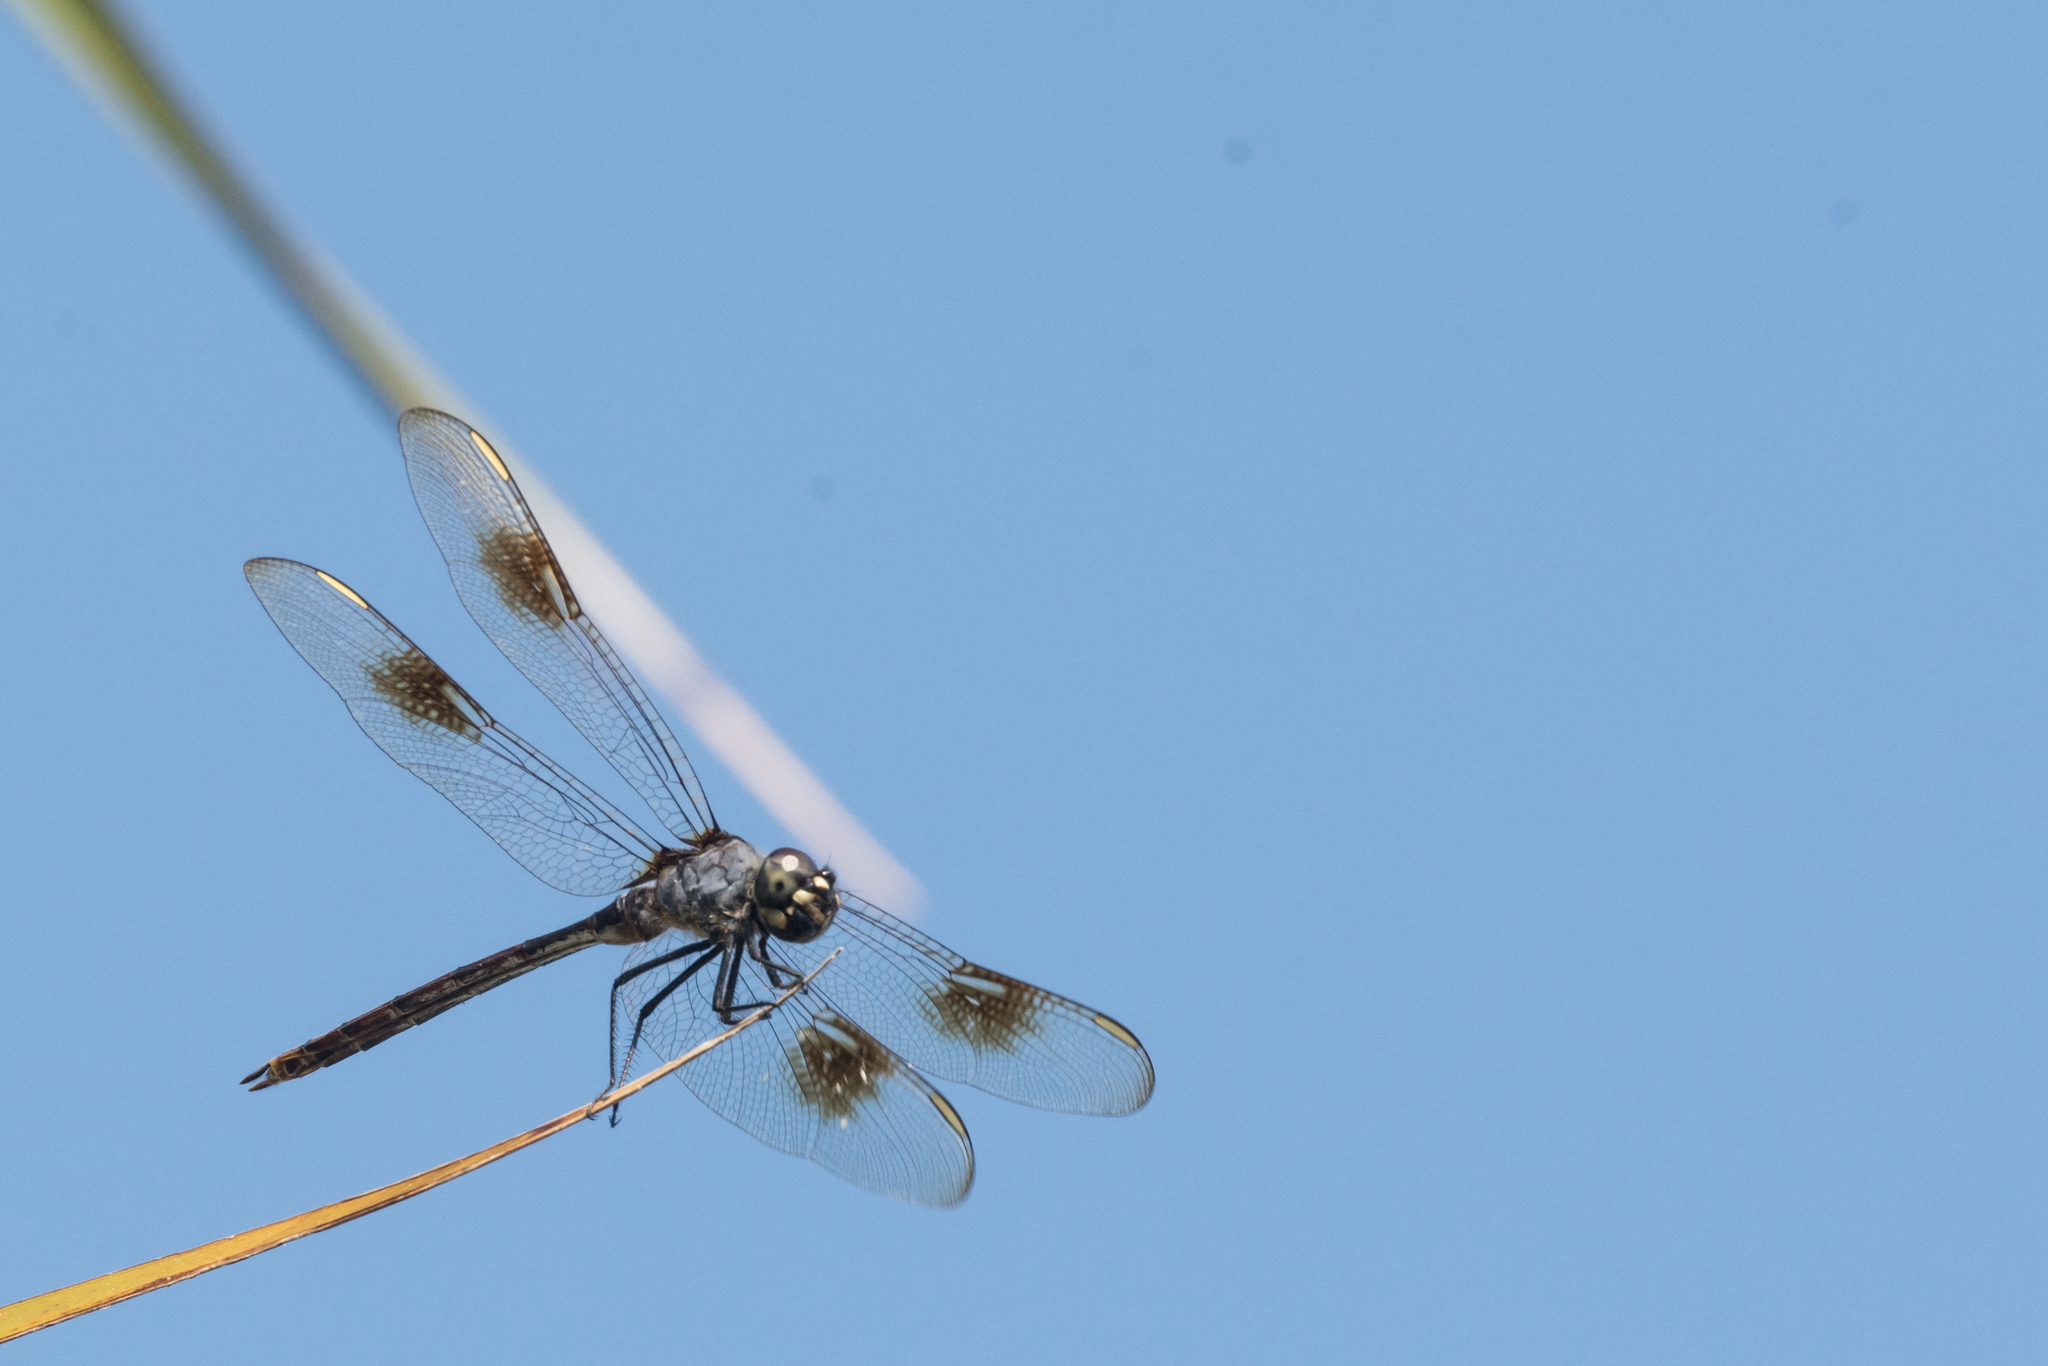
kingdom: Animalia
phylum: Arthropoda
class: Insecta
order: Odonata
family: Libellulidae
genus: Brachymesia
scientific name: Brachymesia gravida
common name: Four-spotted pennant
